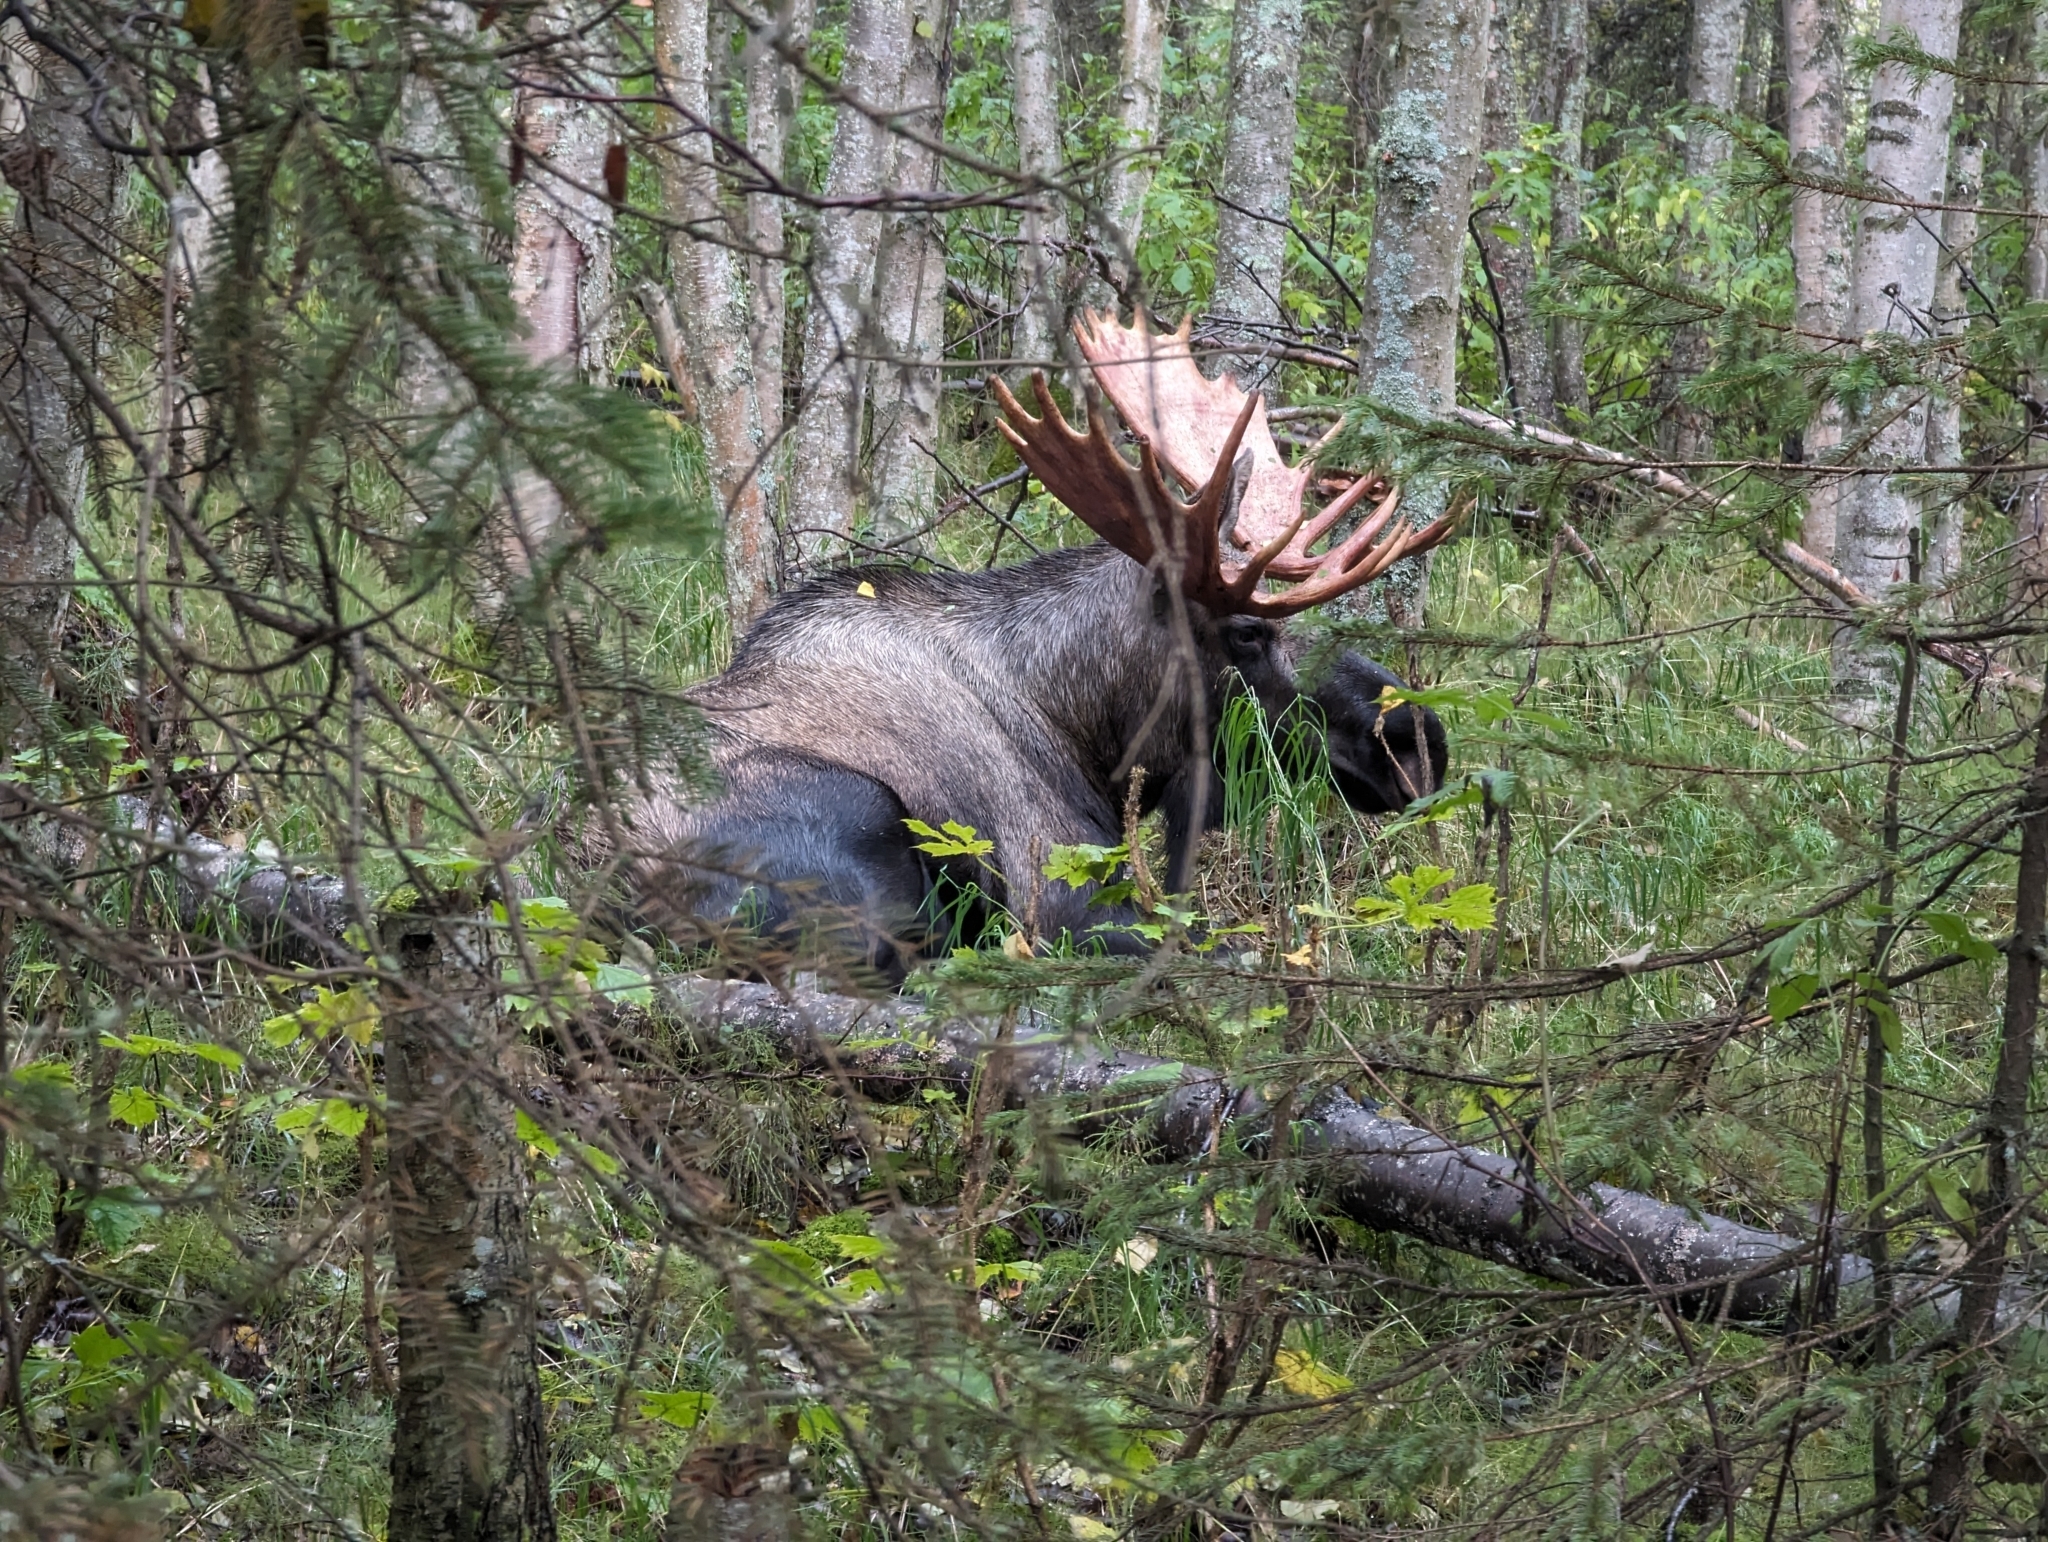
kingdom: Animalia
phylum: Chordata
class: Mammalia
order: Artiodactyla
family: Cervidae
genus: Alces
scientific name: Alces alces
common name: Moose
